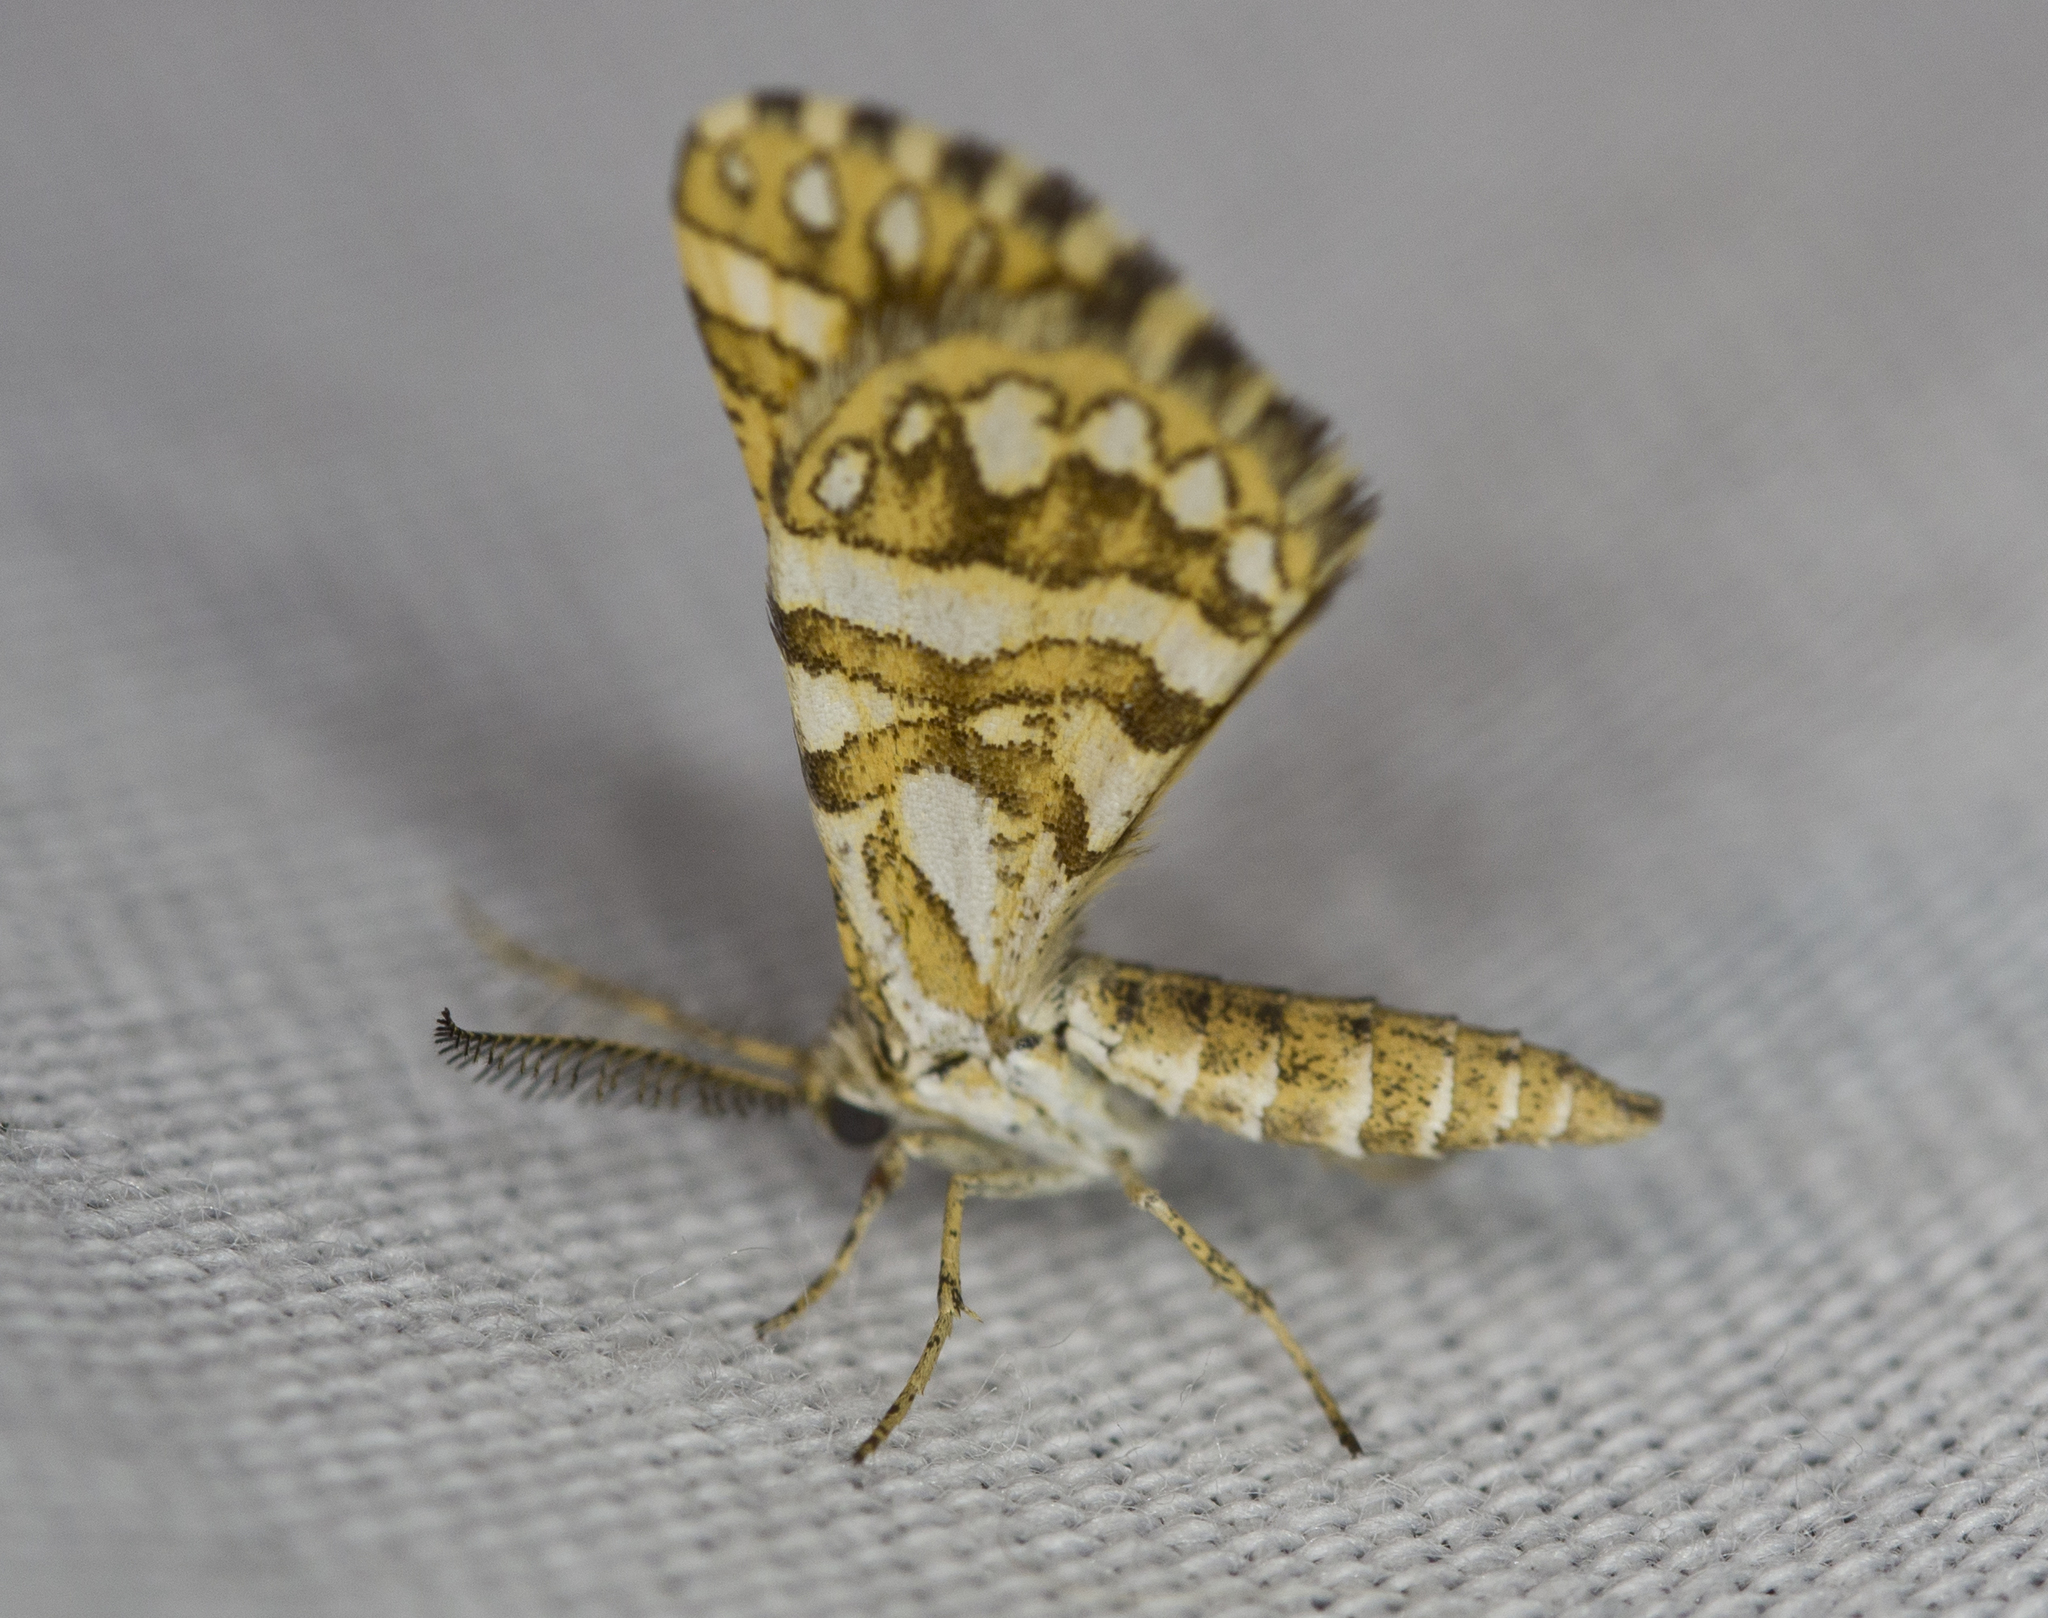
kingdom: Animalia
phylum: Arthropoda
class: Insecta
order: Lepidoptera
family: Geometridae
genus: Narraga
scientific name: Narraga fimetaria
